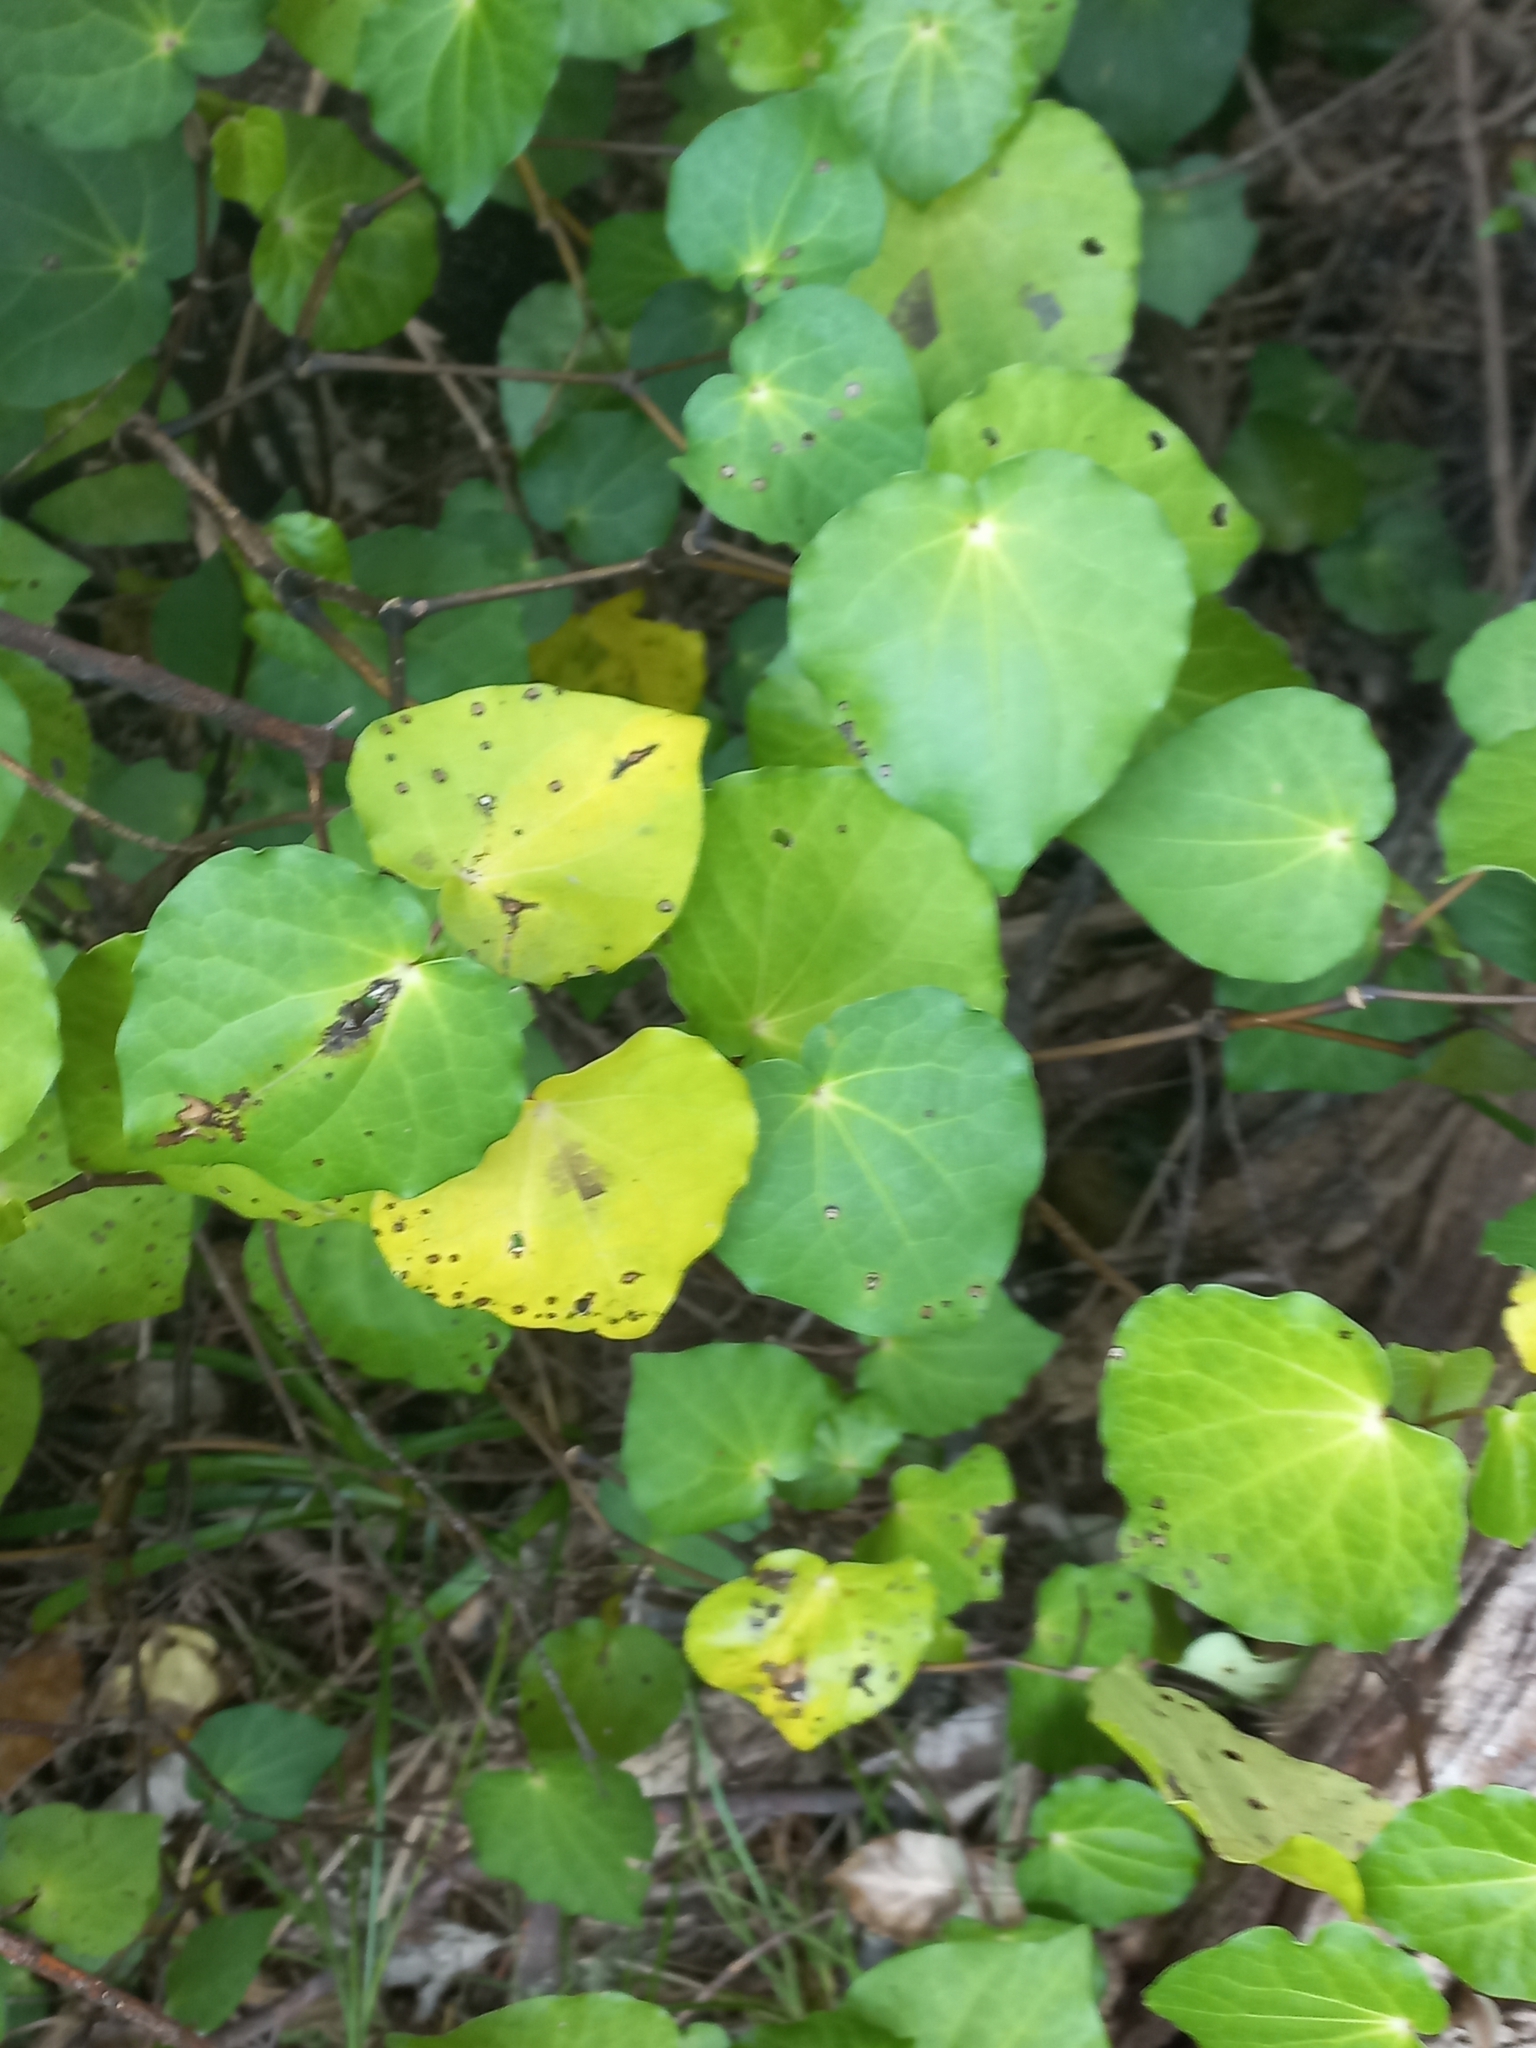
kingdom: Plantae
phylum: Tracheophyta
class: Magnoliopsida
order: Piperales
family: Piperaceae
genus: Macropiper
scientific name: Macropiper excelsum
